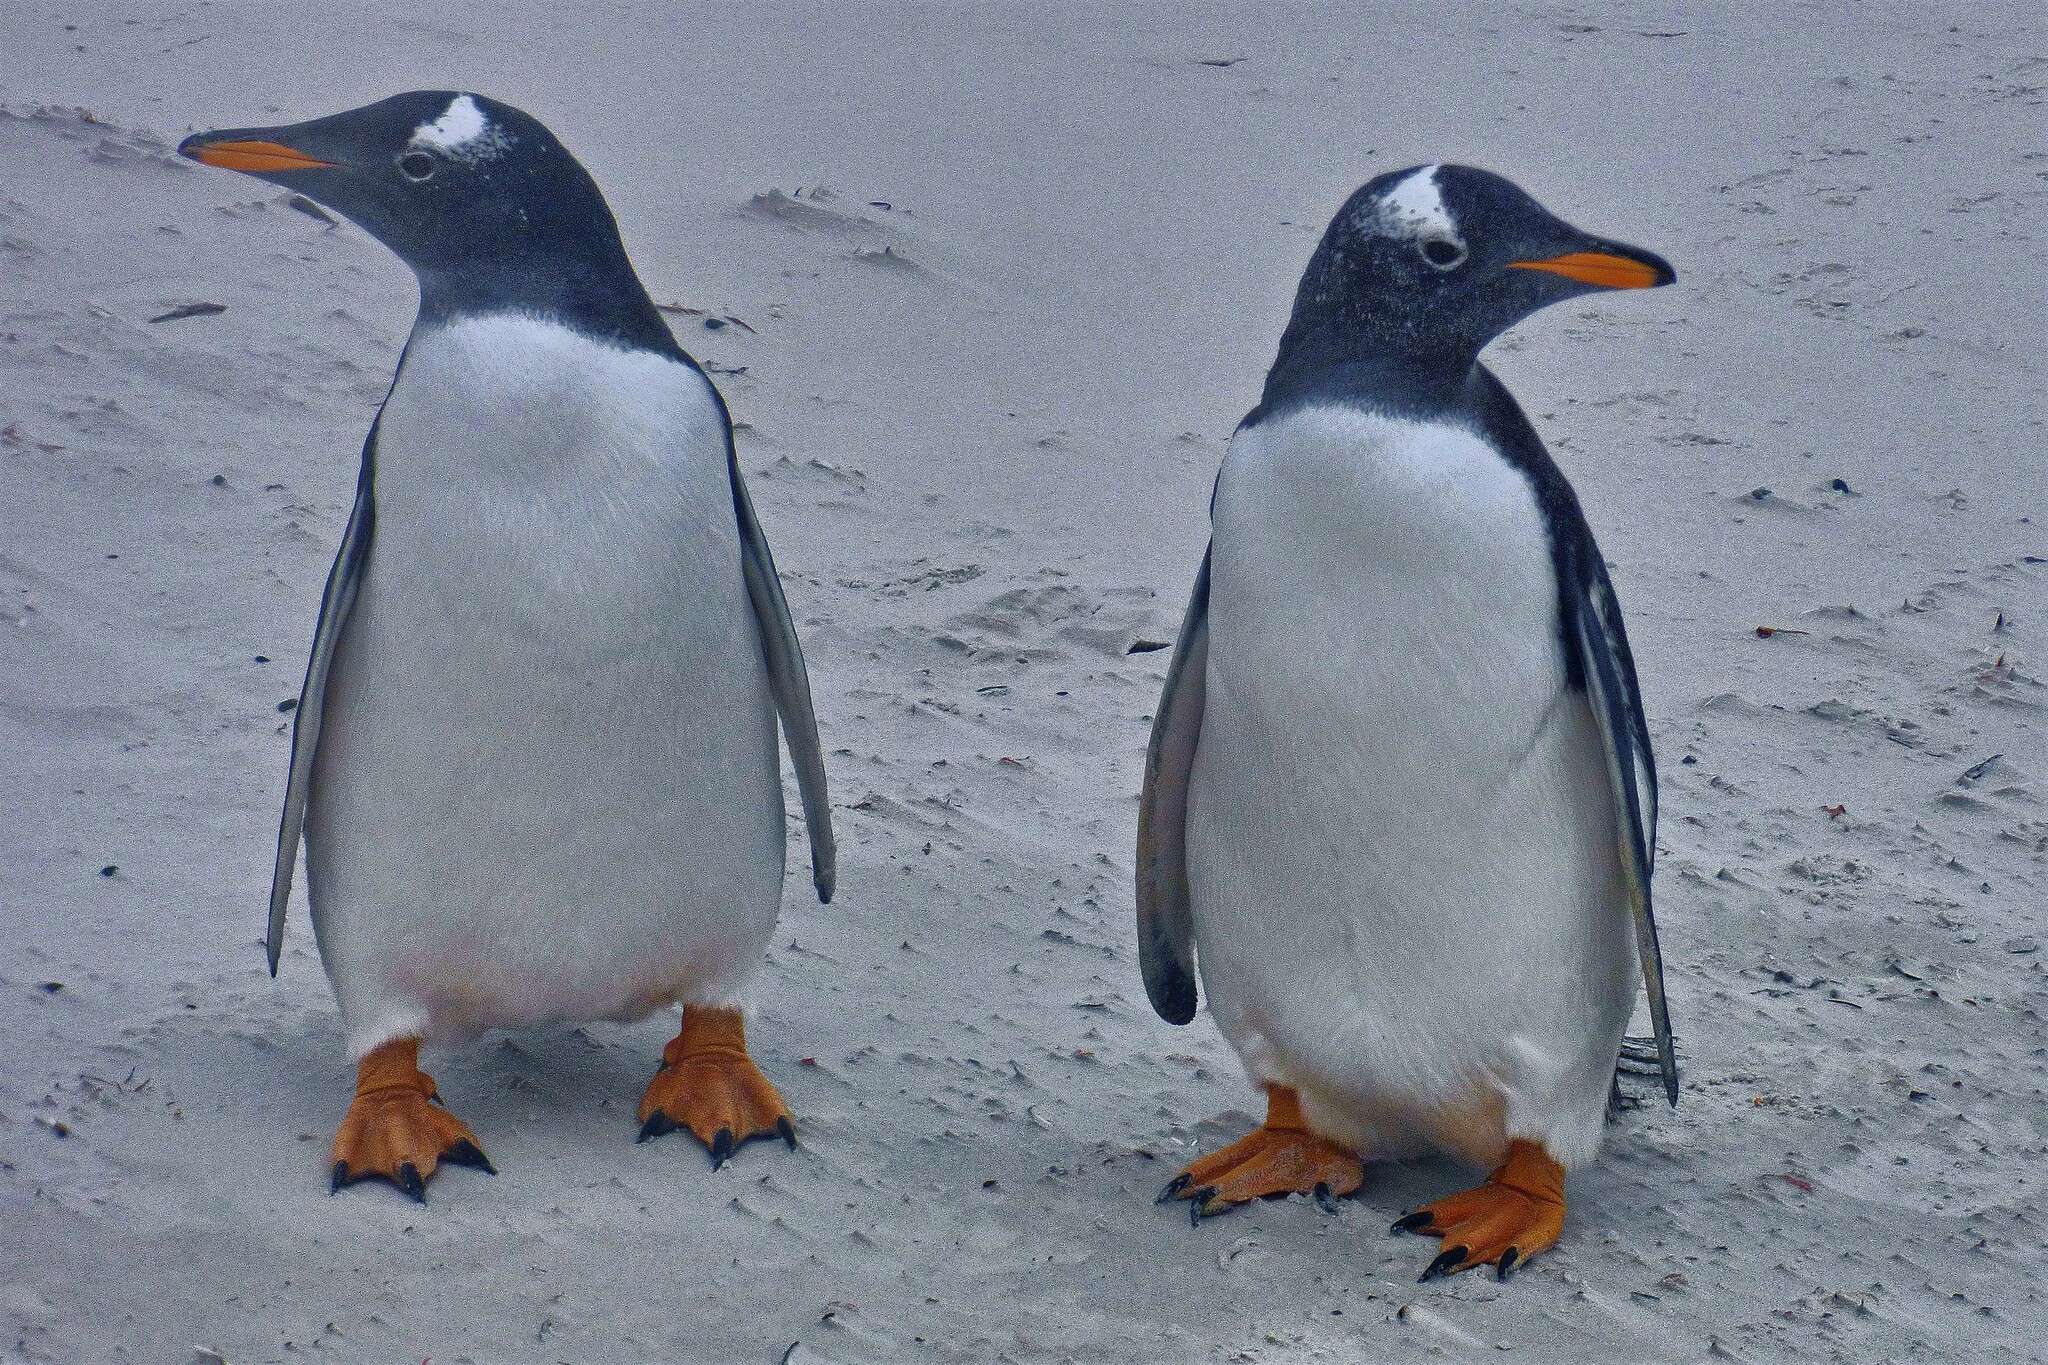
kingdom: Animalia
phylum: Chordata
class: Aves
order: Sphenisciformes
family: Spheniscidae
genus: Pygoscelis
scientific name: Pygoscelis papua
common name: Gentoo penguin
